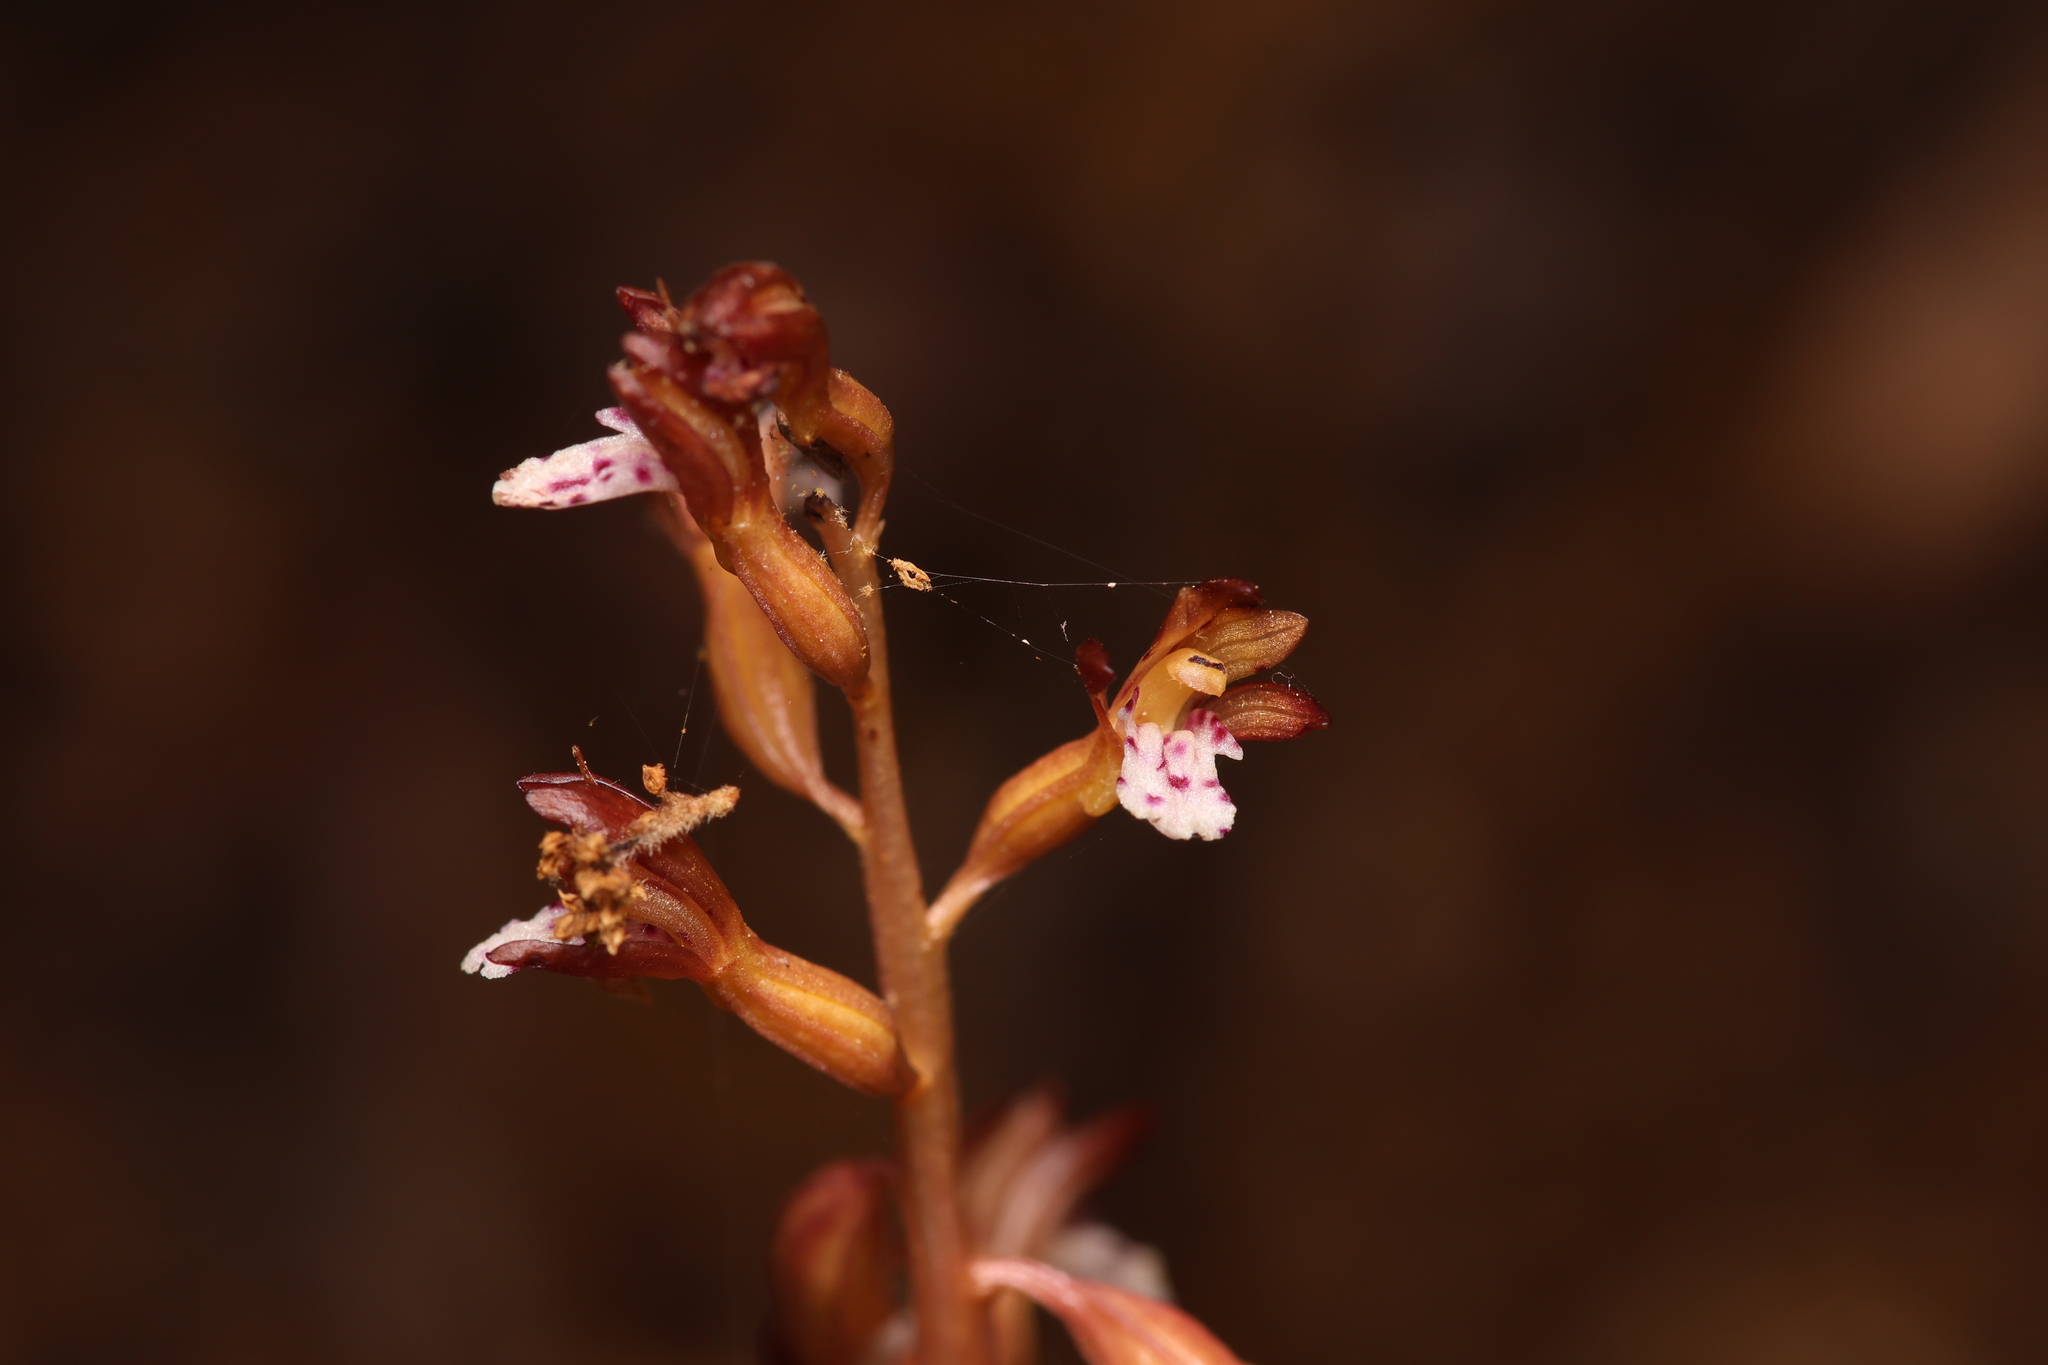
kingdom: Plantae
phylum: Tracheophyta
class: Liliopsida
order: Asparagales
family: Orchidaceae
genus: Corallorhiza
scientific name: Corallorhiza maculata
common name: Spotted coralroot
